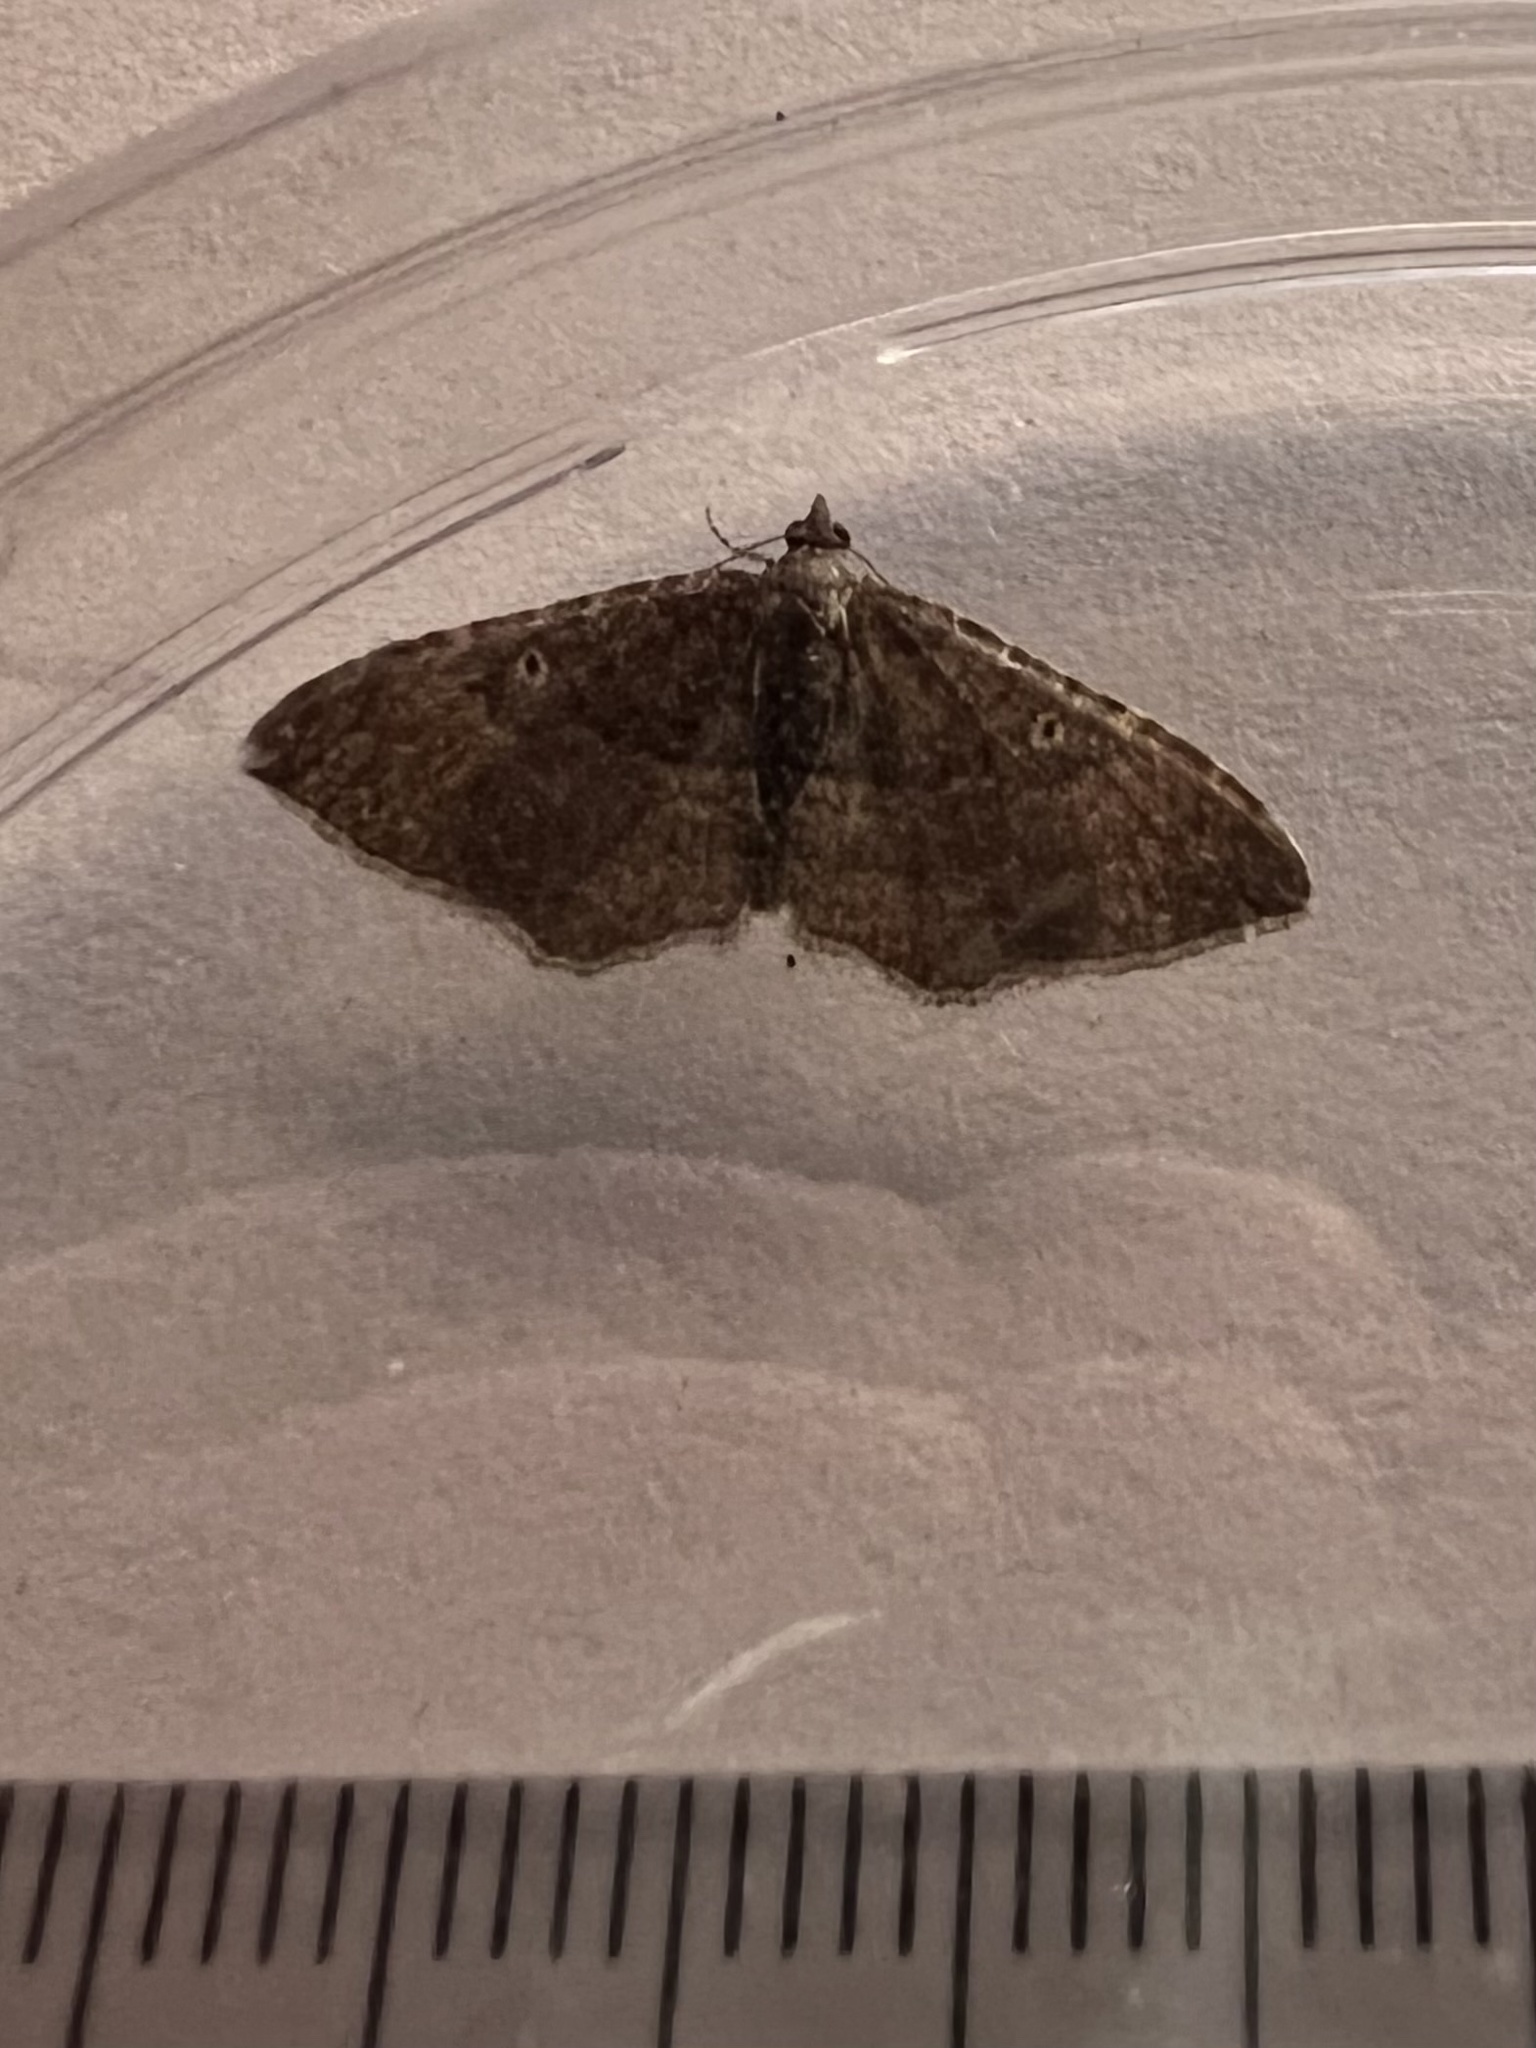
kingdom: Animalia
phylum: Arthropoda
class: Insecta
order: Lepidoptera
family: Geometridae
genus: Orthonama
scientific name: Orthonama obstipata
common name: The gem
